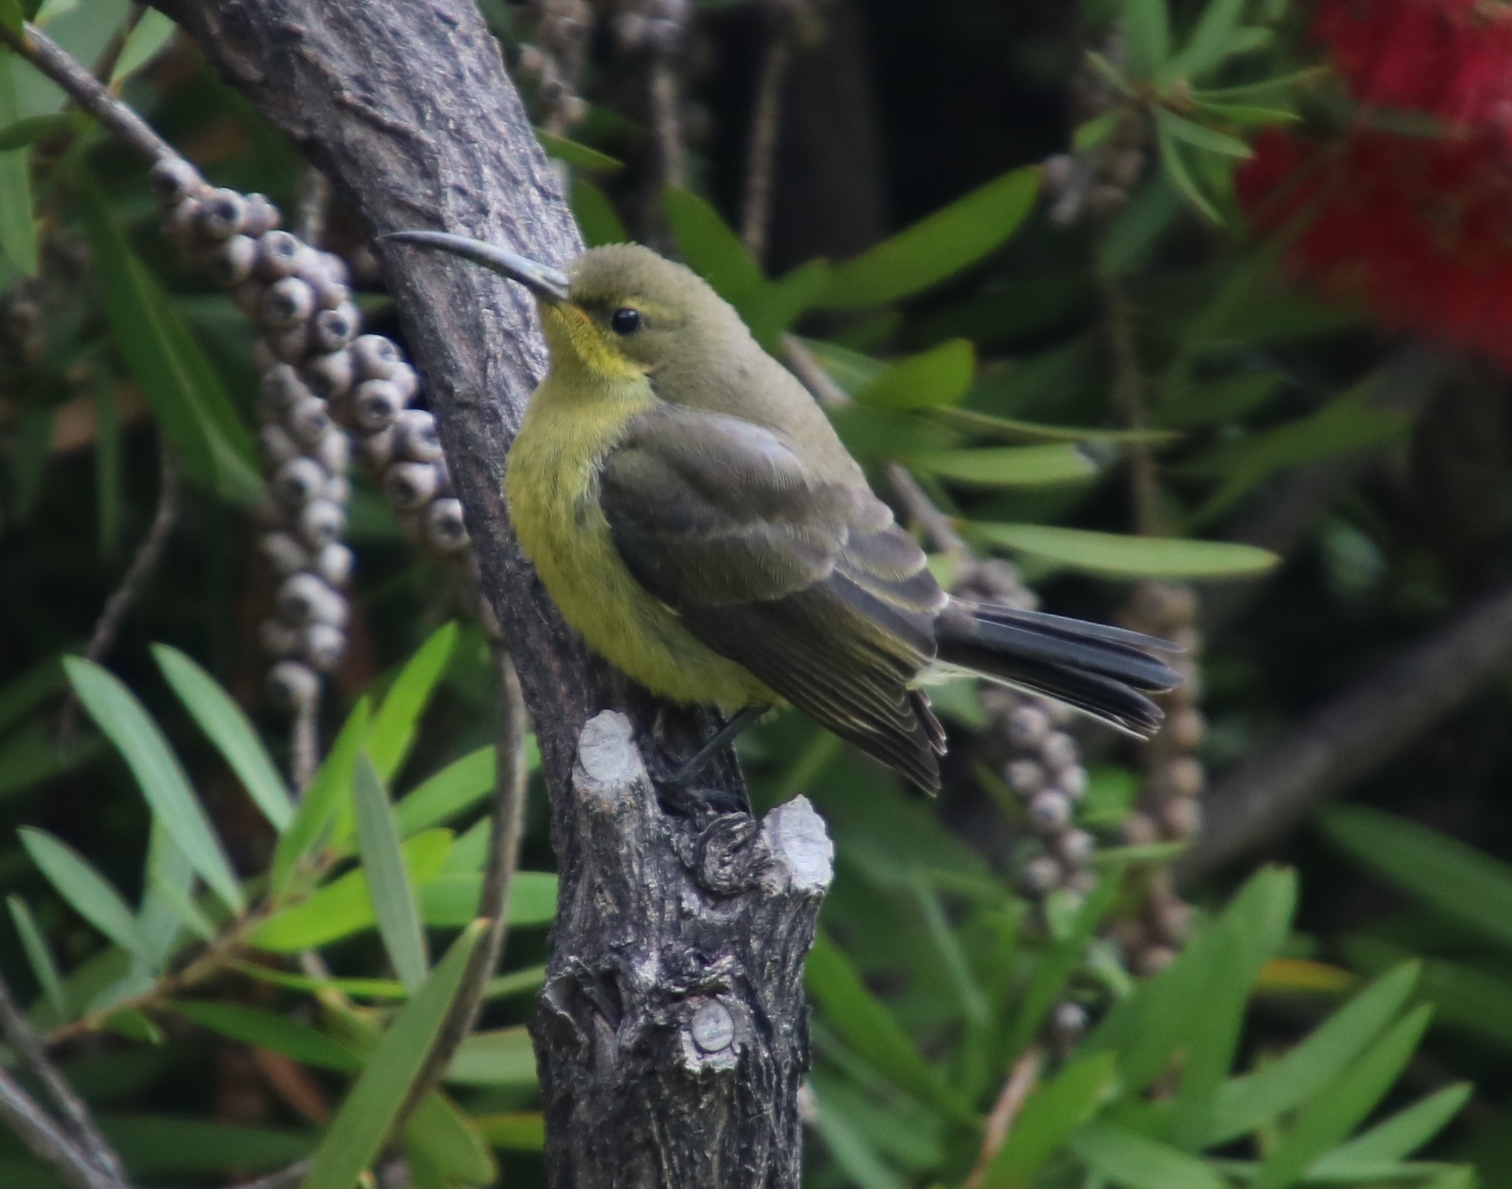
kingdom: Animalia
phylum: Chordata
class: Aves
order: Passeriformes
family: Nectariniidae
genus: Nectarinia
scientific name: Nectarinia famosa
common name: Malachite sunbird
